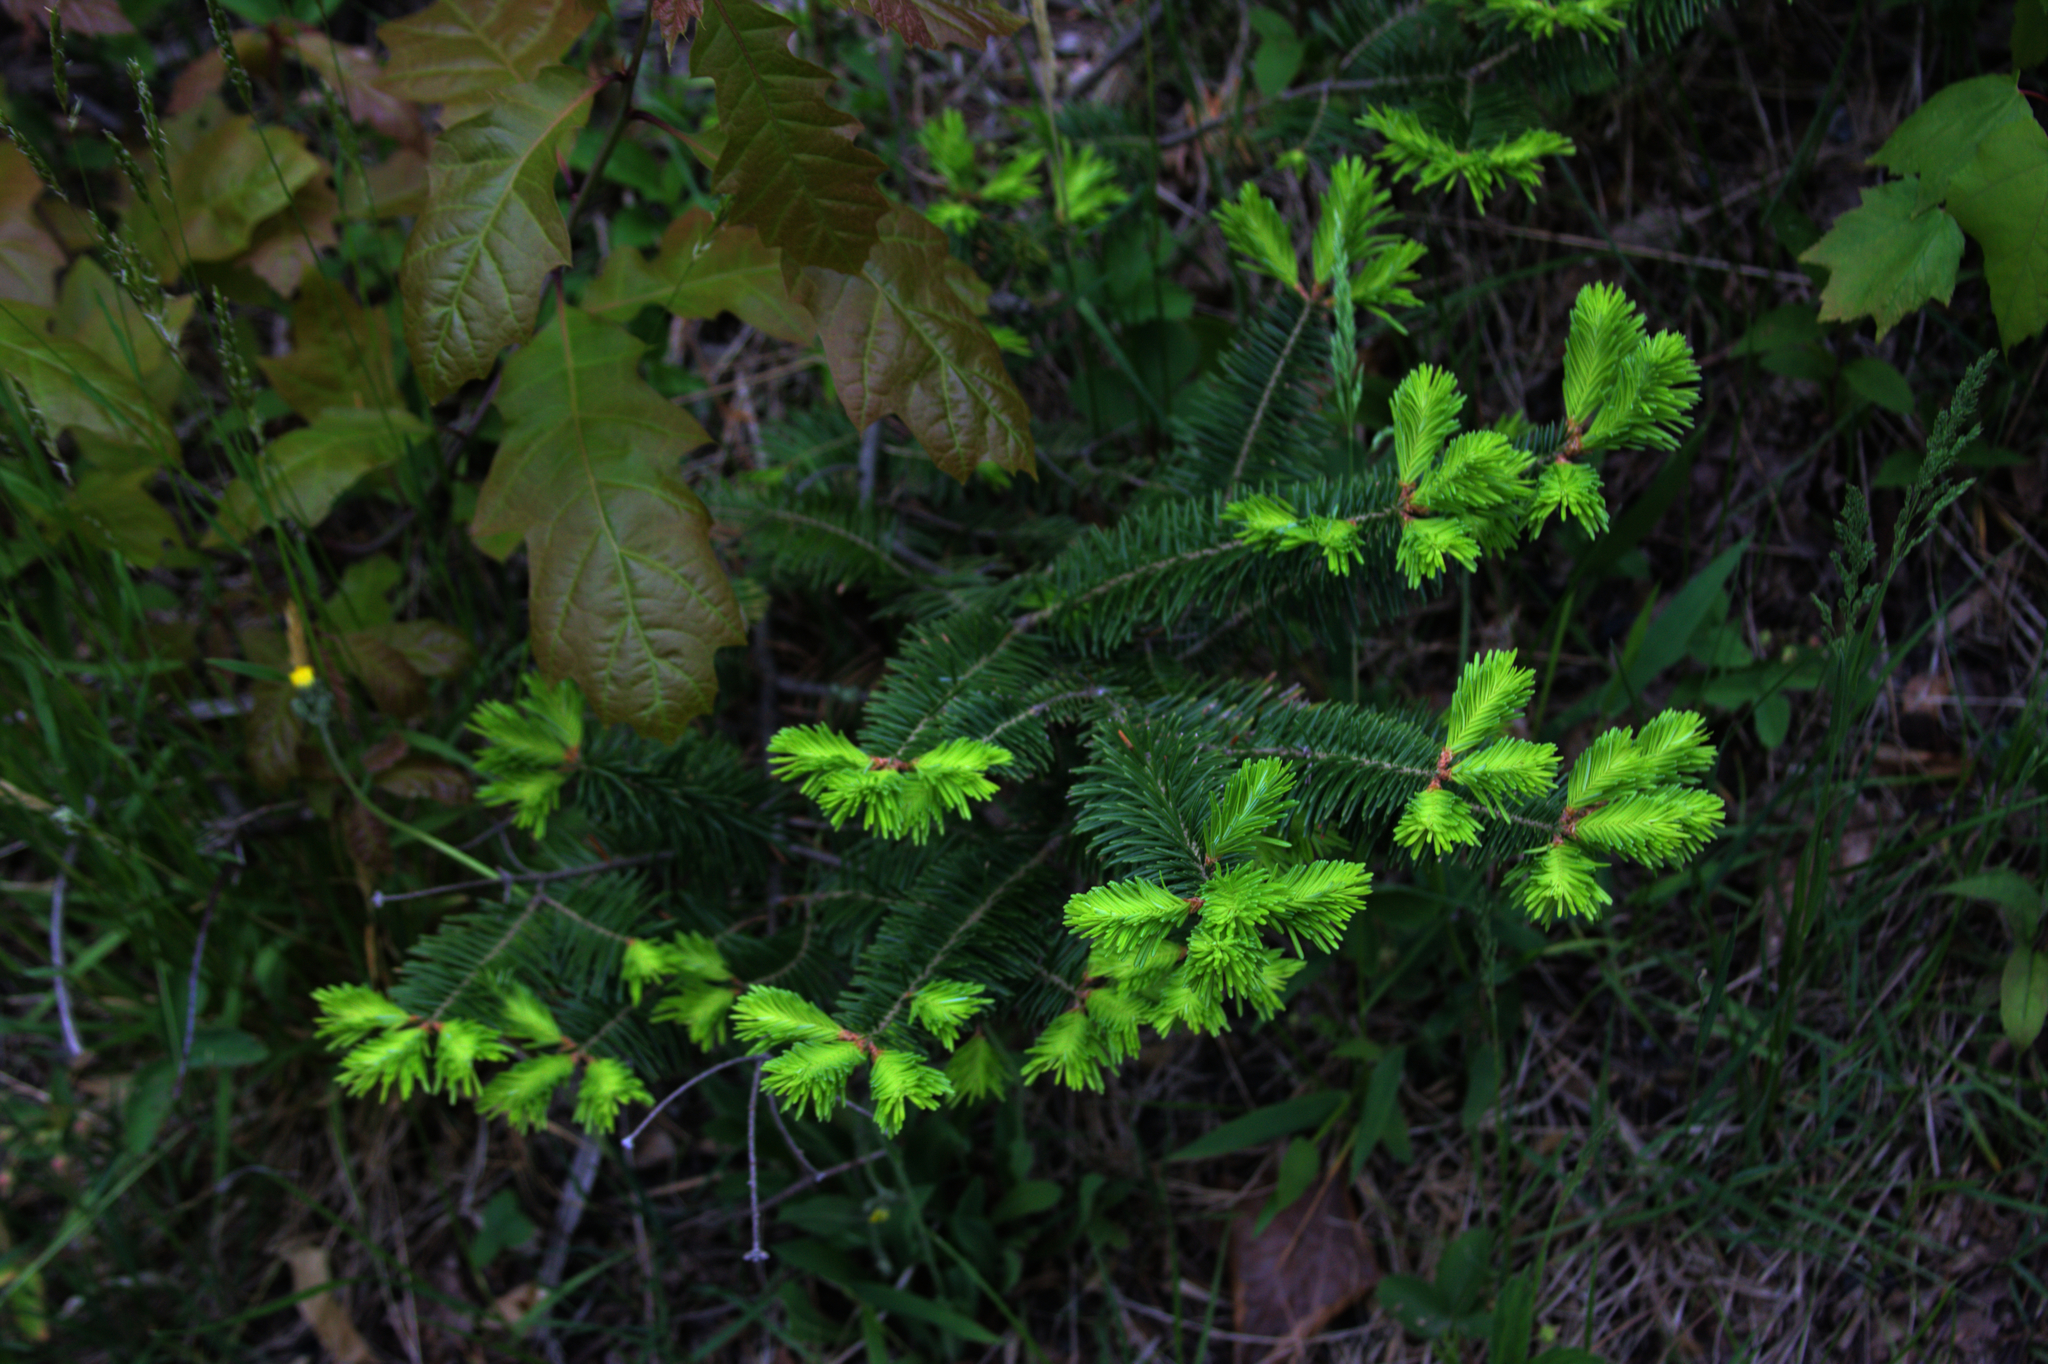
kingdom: Plantae
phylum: Tracheophyta
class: Pinopsida
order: Pinales
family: Pinaceae
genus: Abies
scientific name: Abies balsamea
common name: Balsam fir
